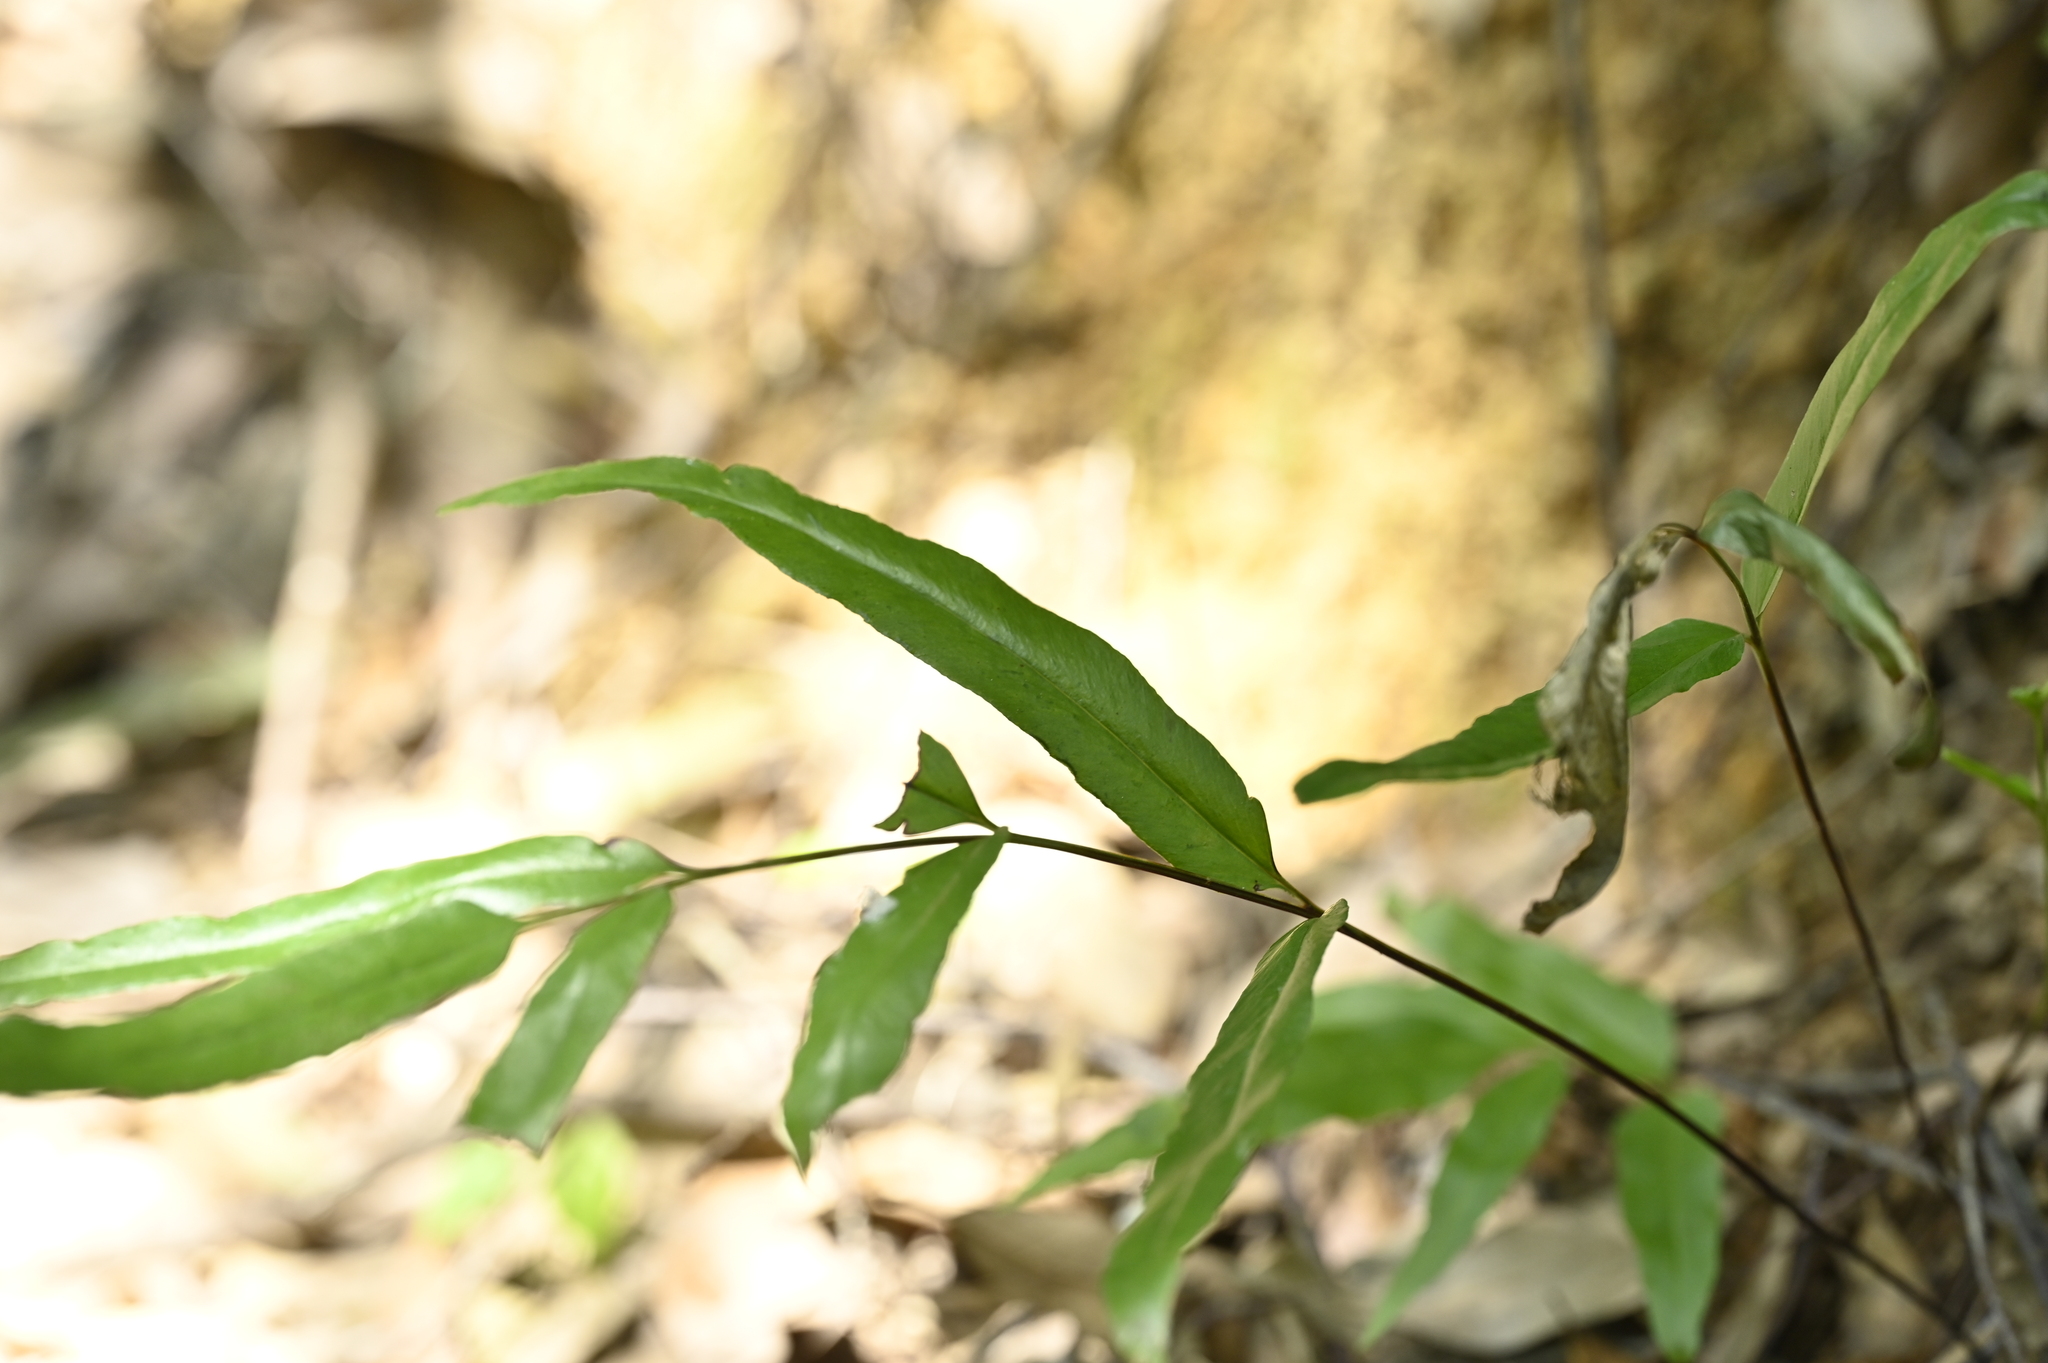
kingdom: Plantae
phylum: Tracheophyta
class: Polypodiopsida
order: Polypodiales
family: Lindsaeaceae
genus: Lindsaea
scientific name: Lindsaea ensifolia
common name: Graceful necklace fern
